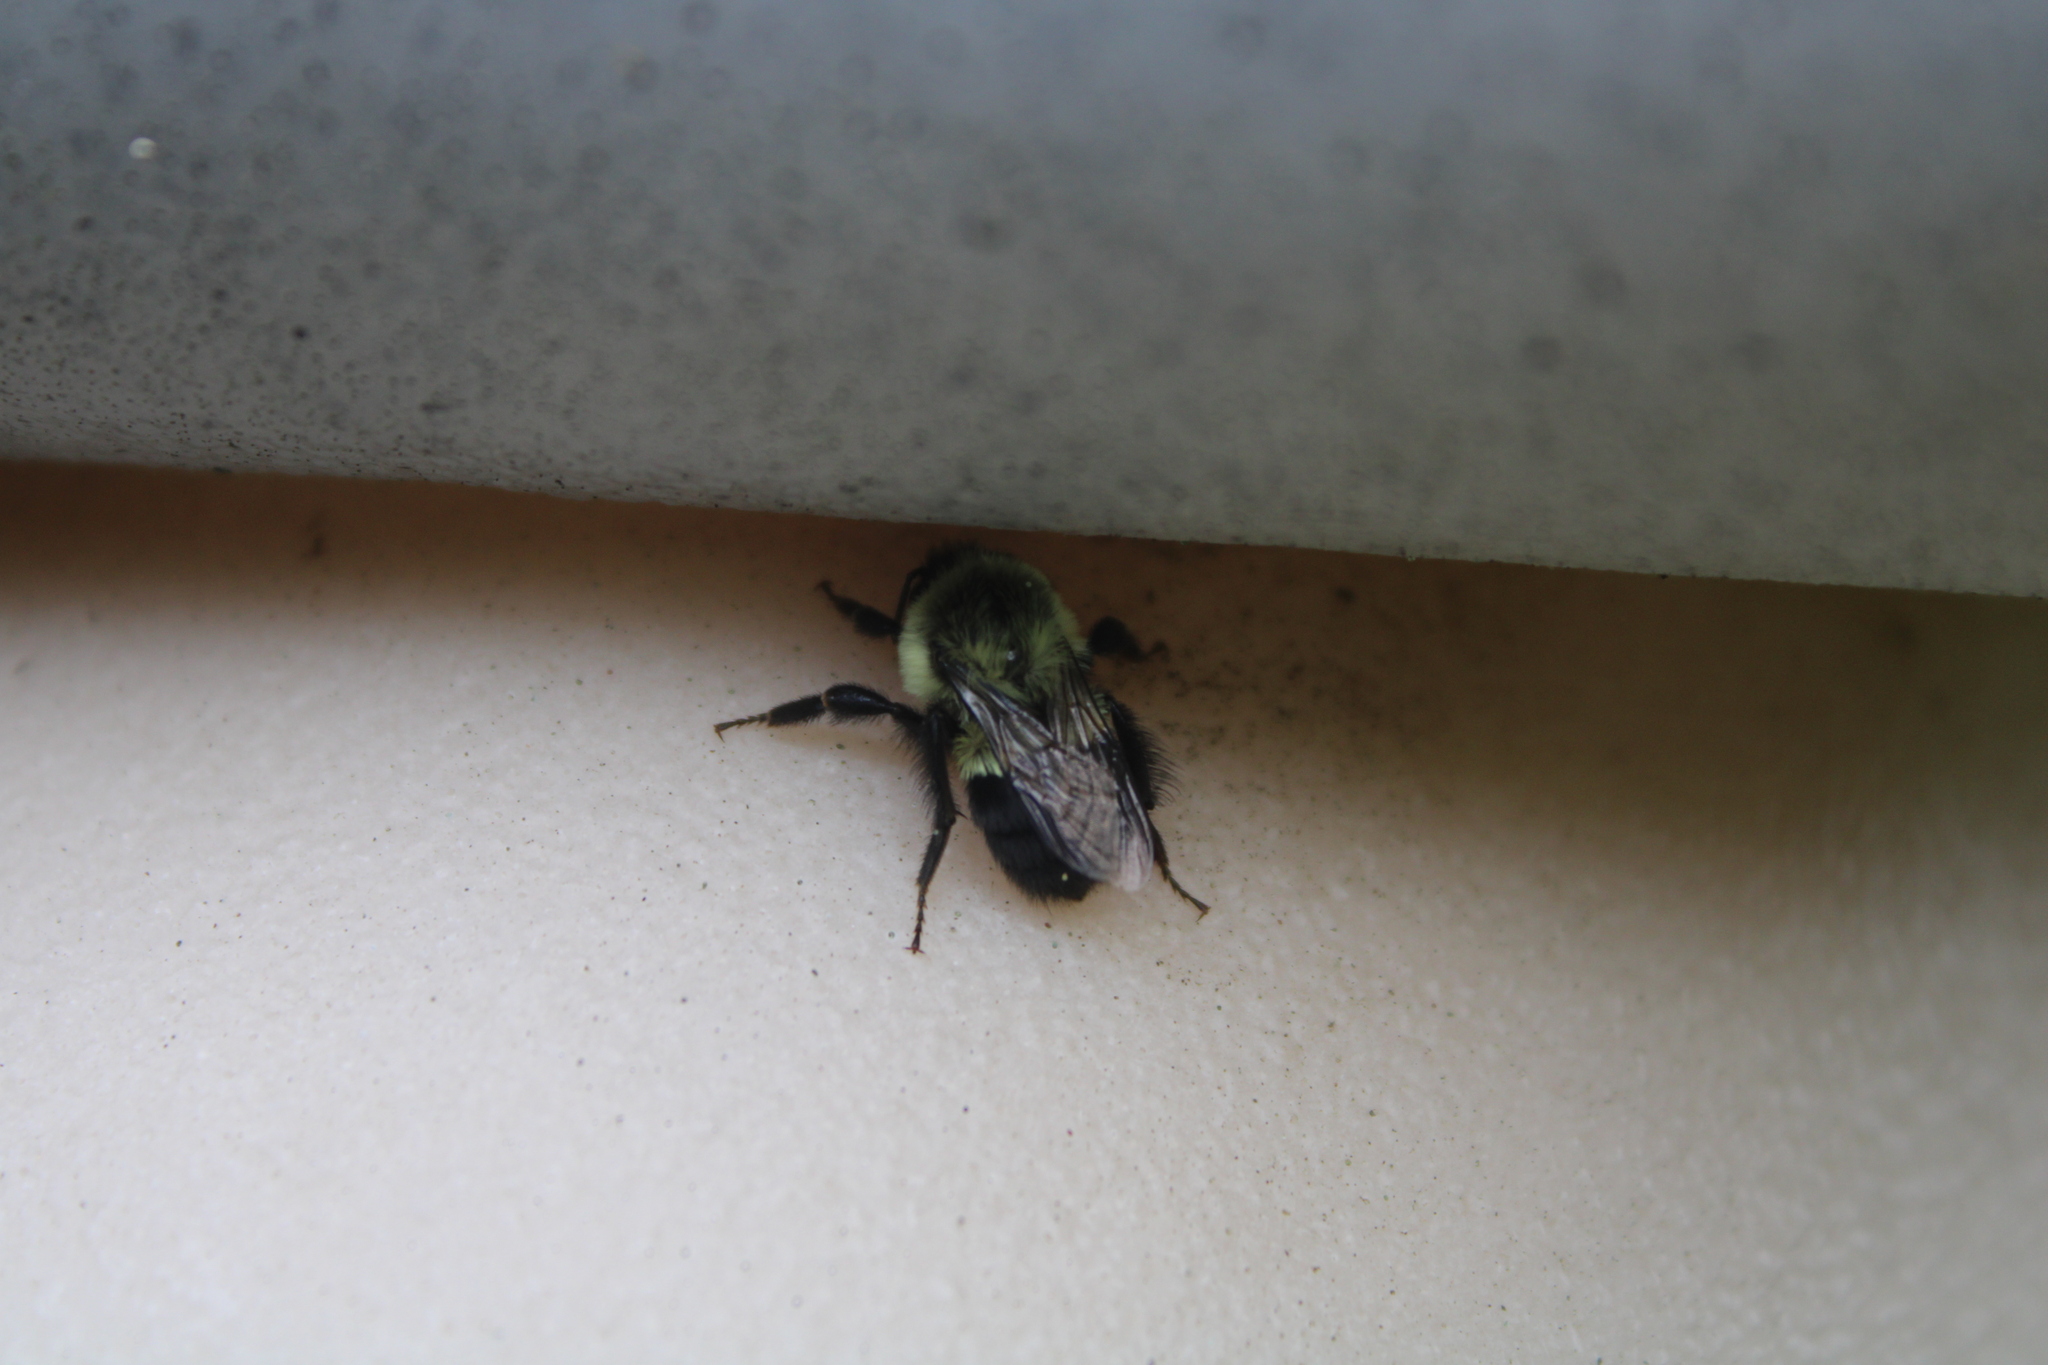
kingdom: Animalia
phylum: Arthropoda
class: Insecta
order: Hymenoptera
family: Apidae
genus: Bombus
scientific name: Bombus impatiens
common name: Common eastern bumble bee
